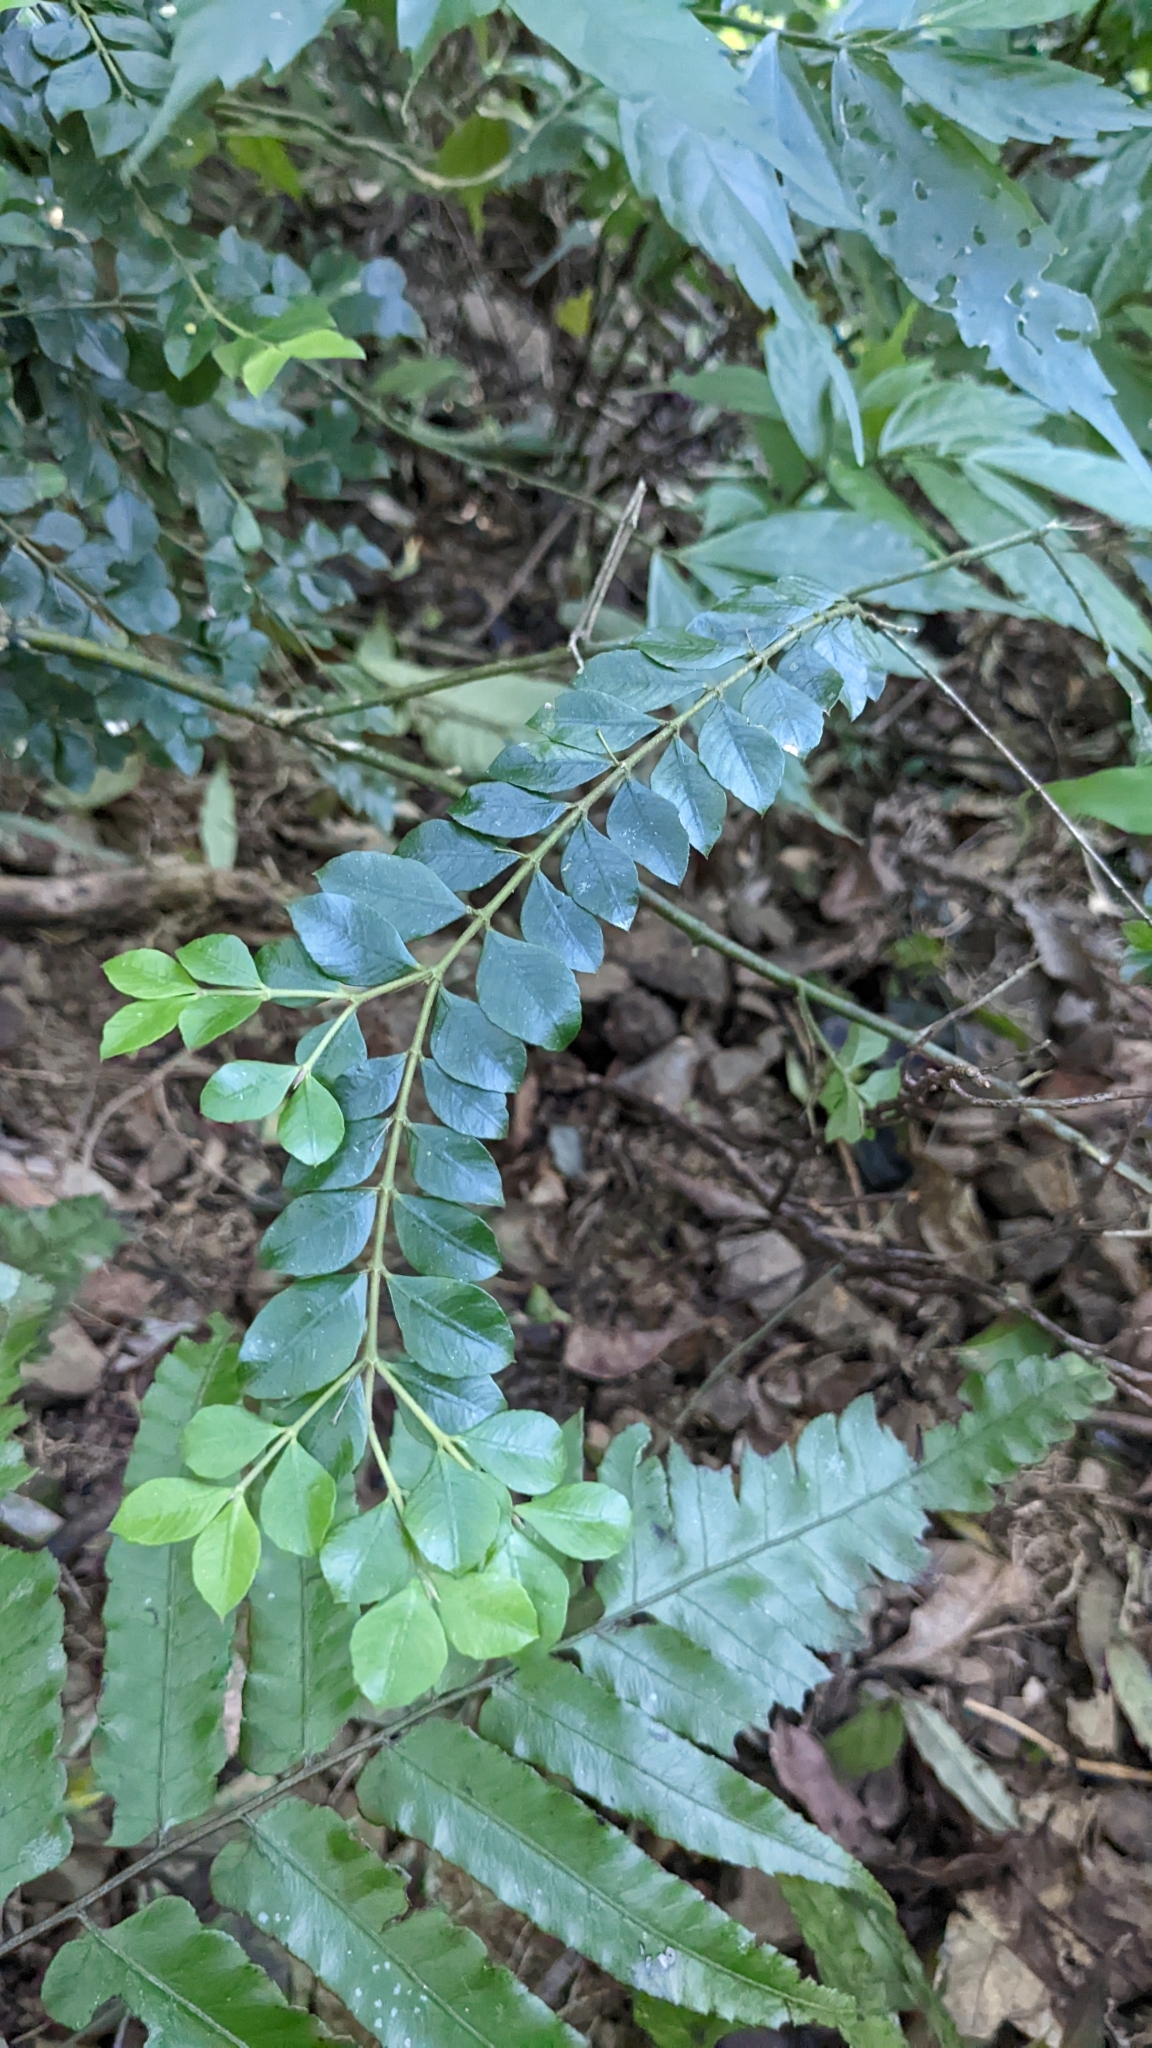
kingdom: Plantae
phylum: Tracheophyta
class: Magnoliopsida
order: Gentianales
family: Rubiaceae
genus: Lasianthus
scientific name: Lasianthus biflorus
